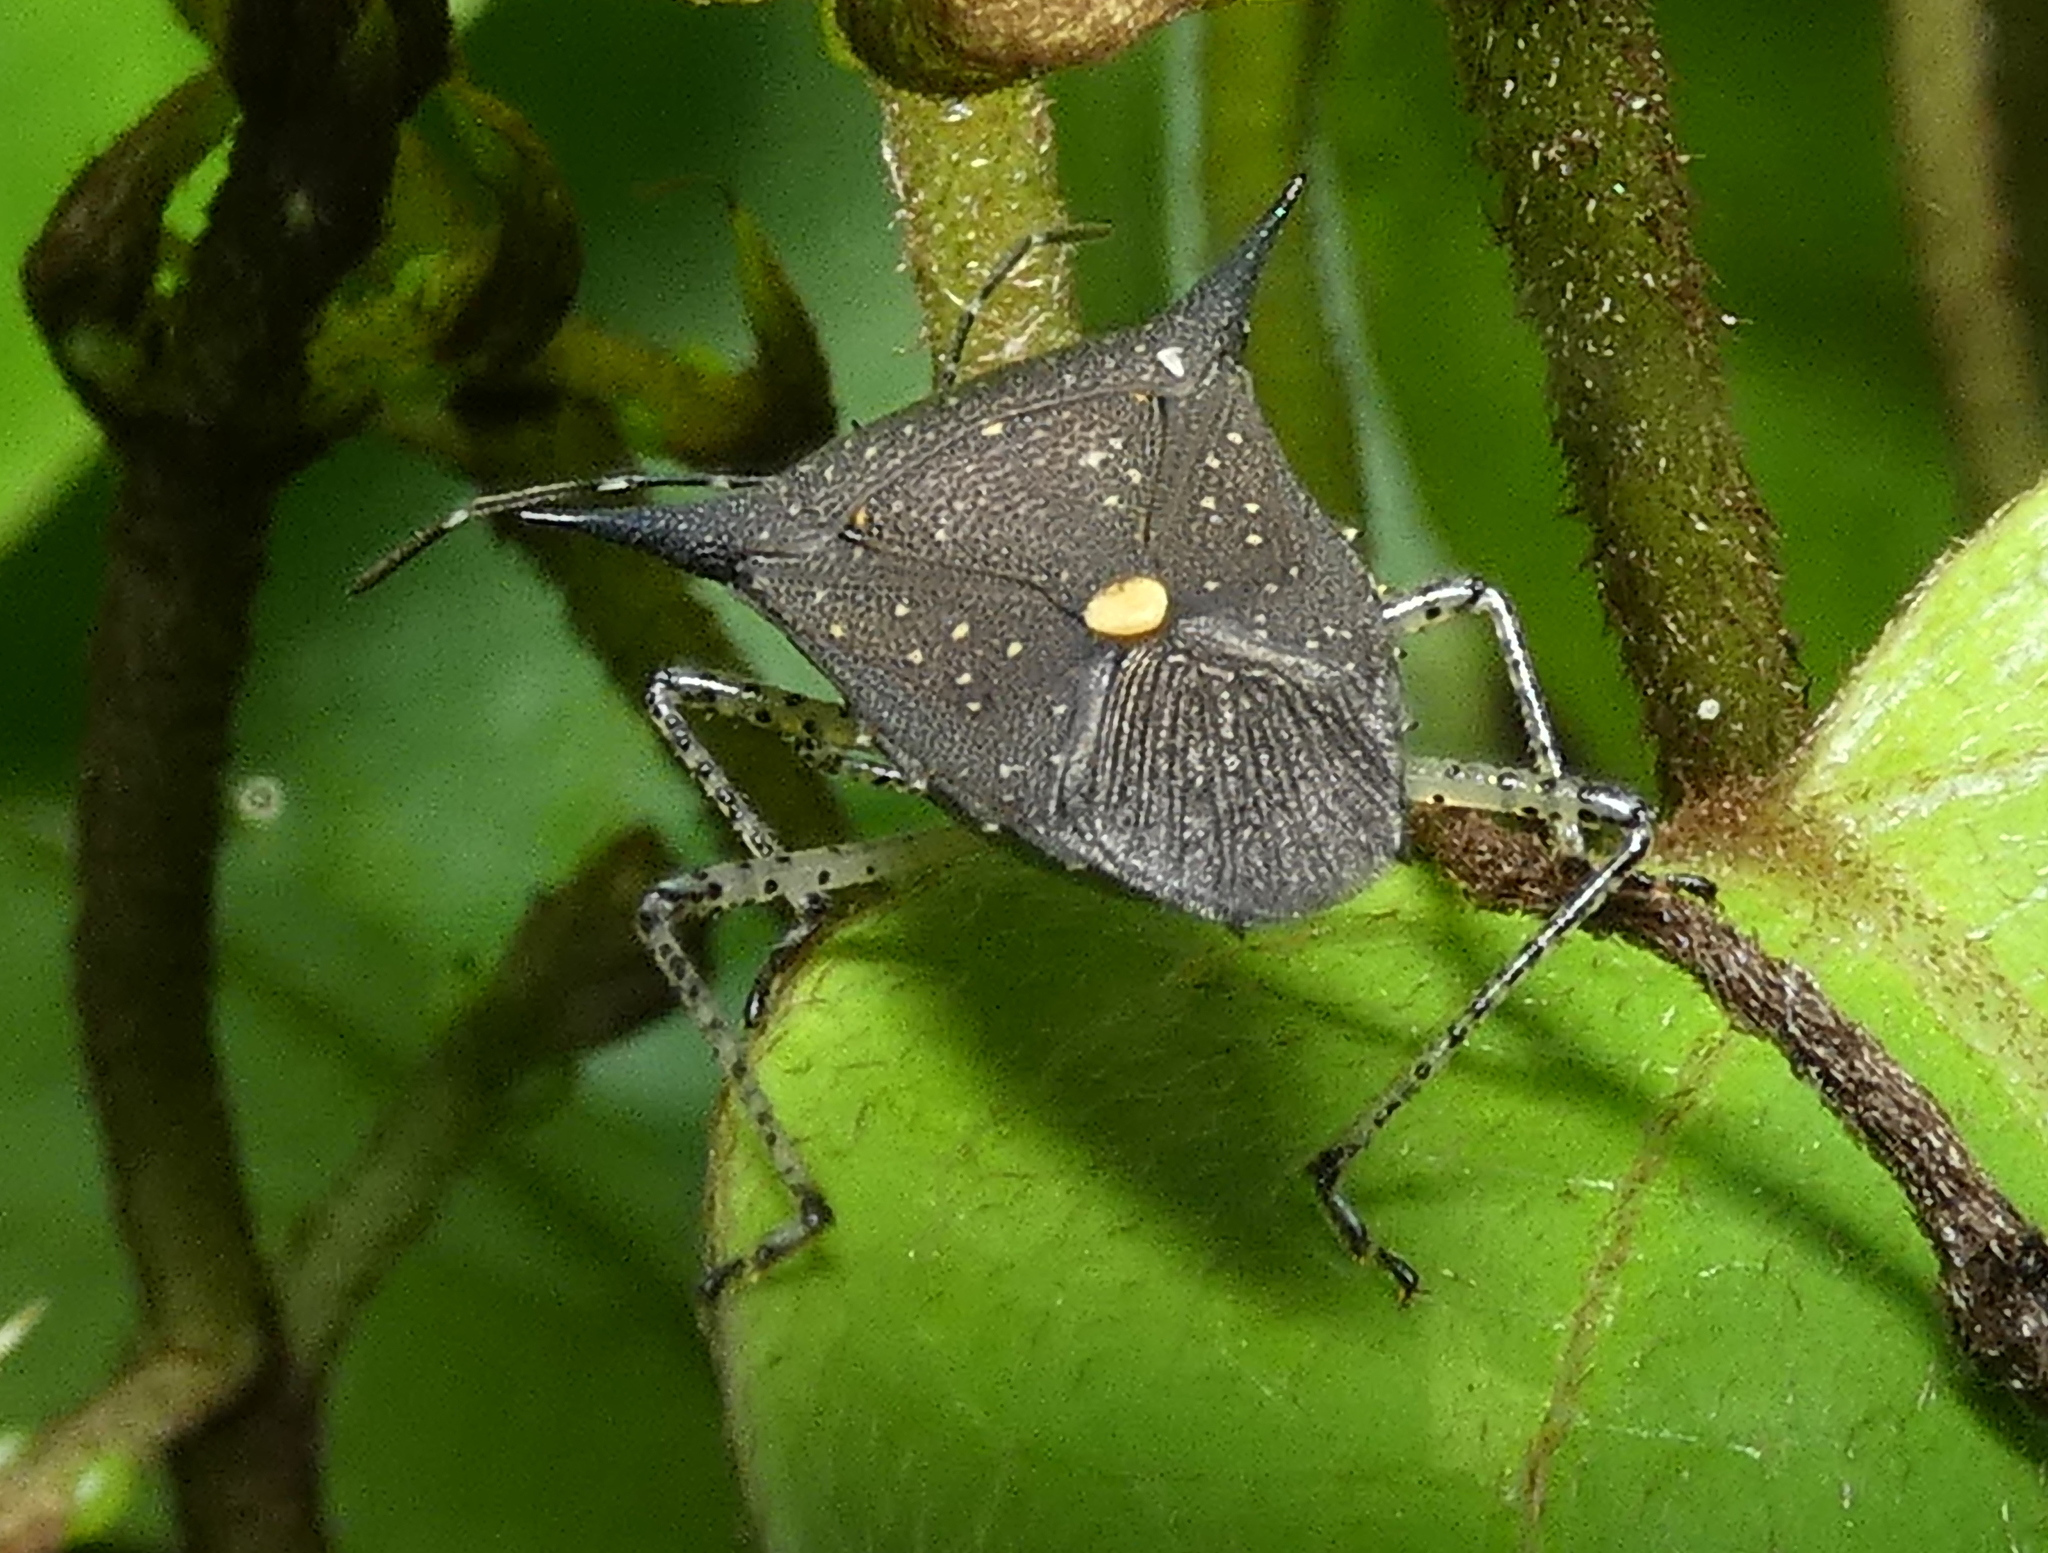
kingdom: Animalia
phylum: Arthropoda
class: Insecta
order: Hemiptera
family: Pentatomidae
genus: Proxys
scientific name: Proxys albopunctulatus
